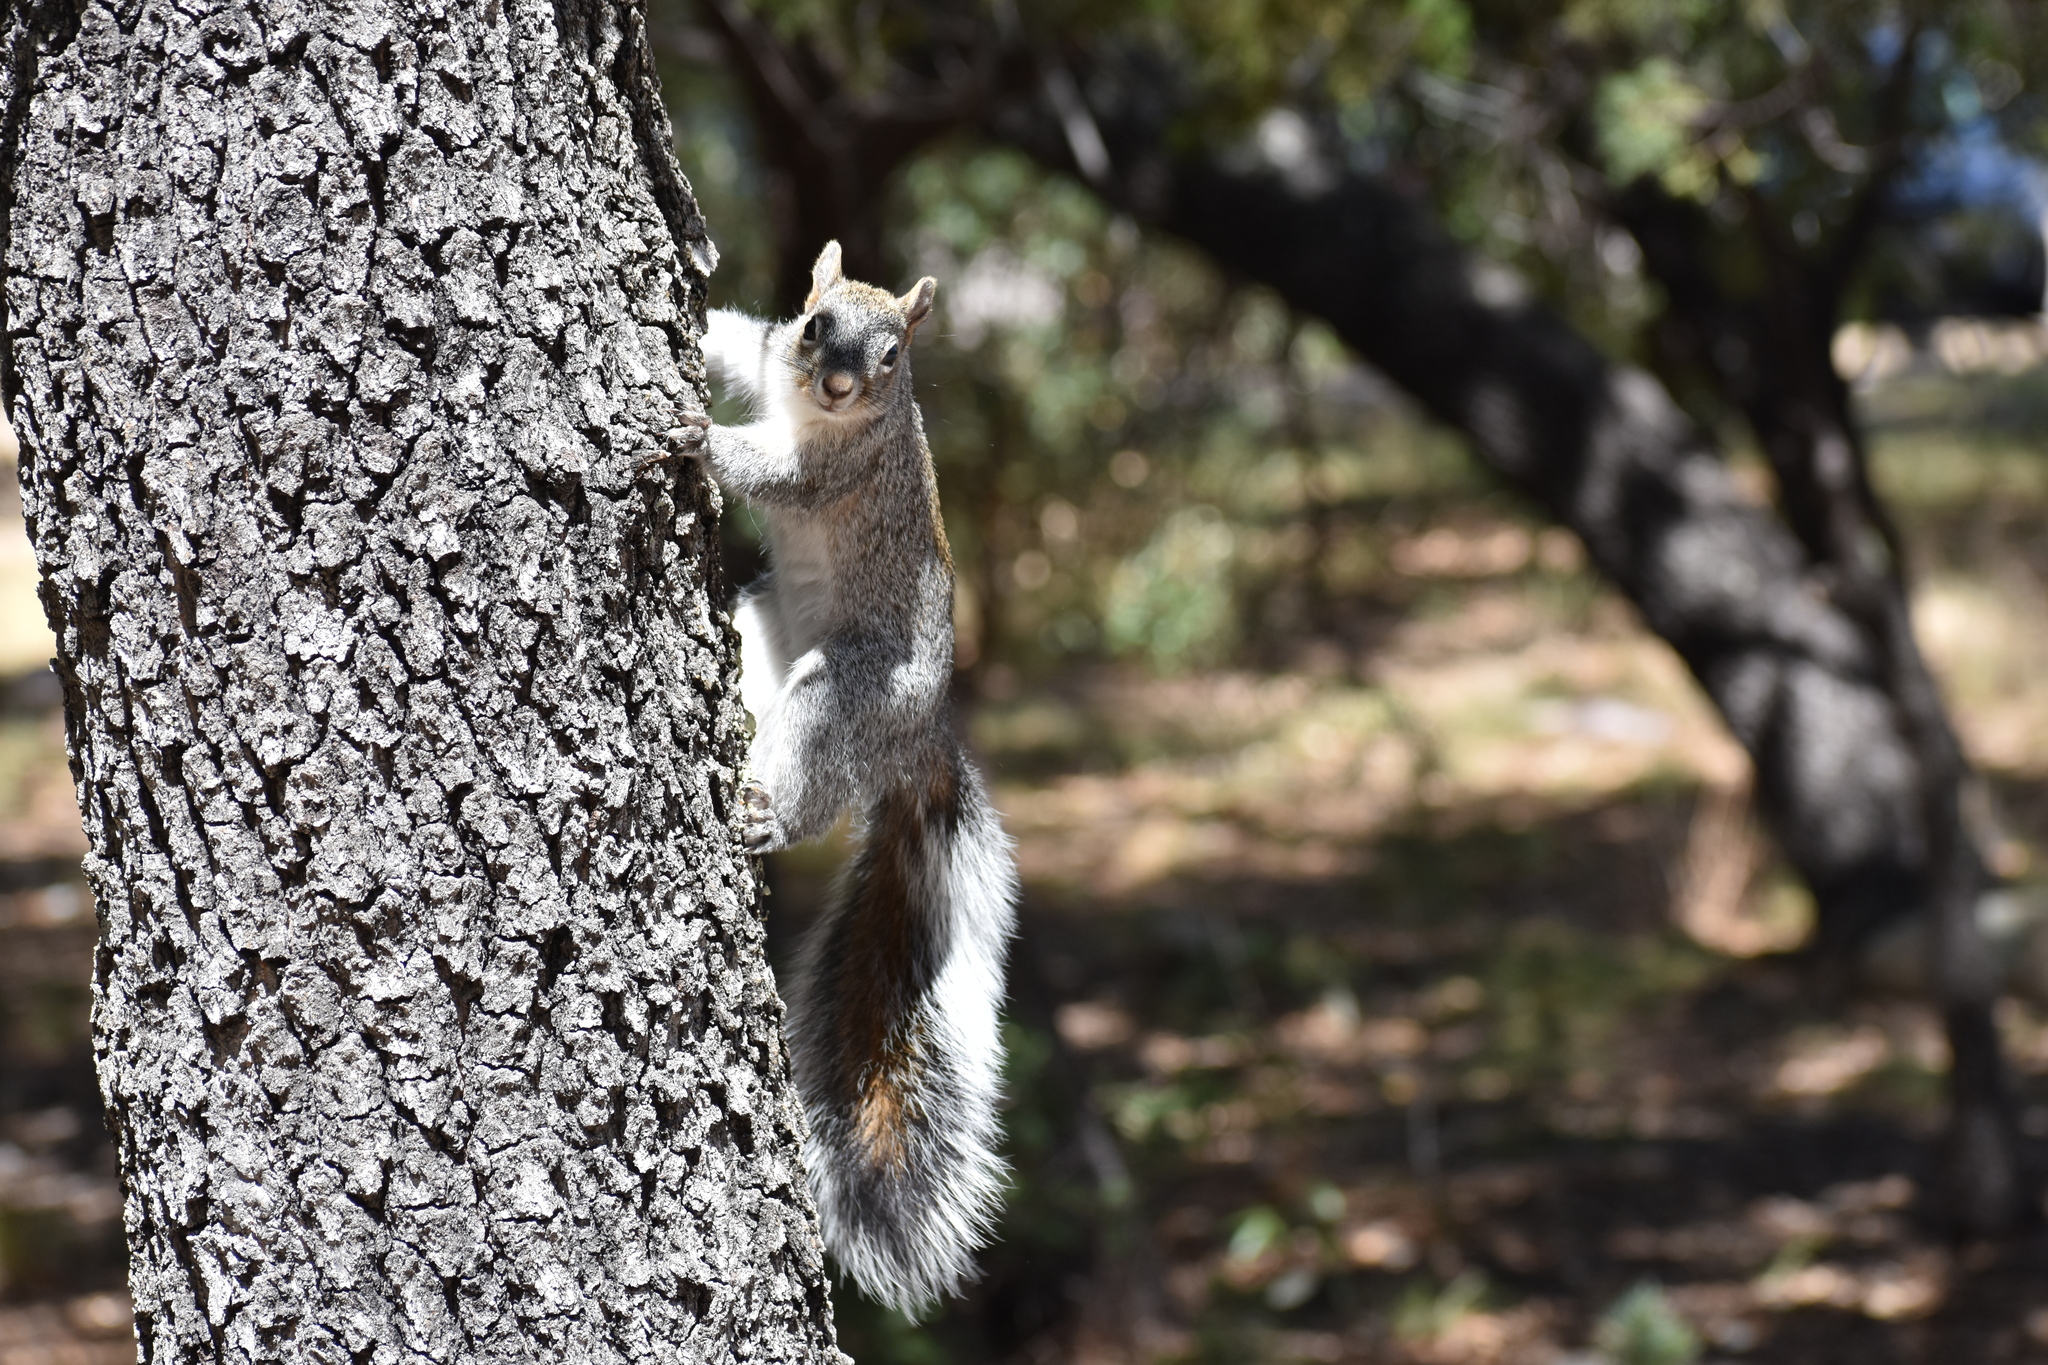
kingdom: Animalia
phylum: Chordata
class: Mammalia
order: Rodentia
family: Sciuridae
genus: Sciurus
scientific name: Sciurus arizonensis
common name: Arizona gray squirrel
